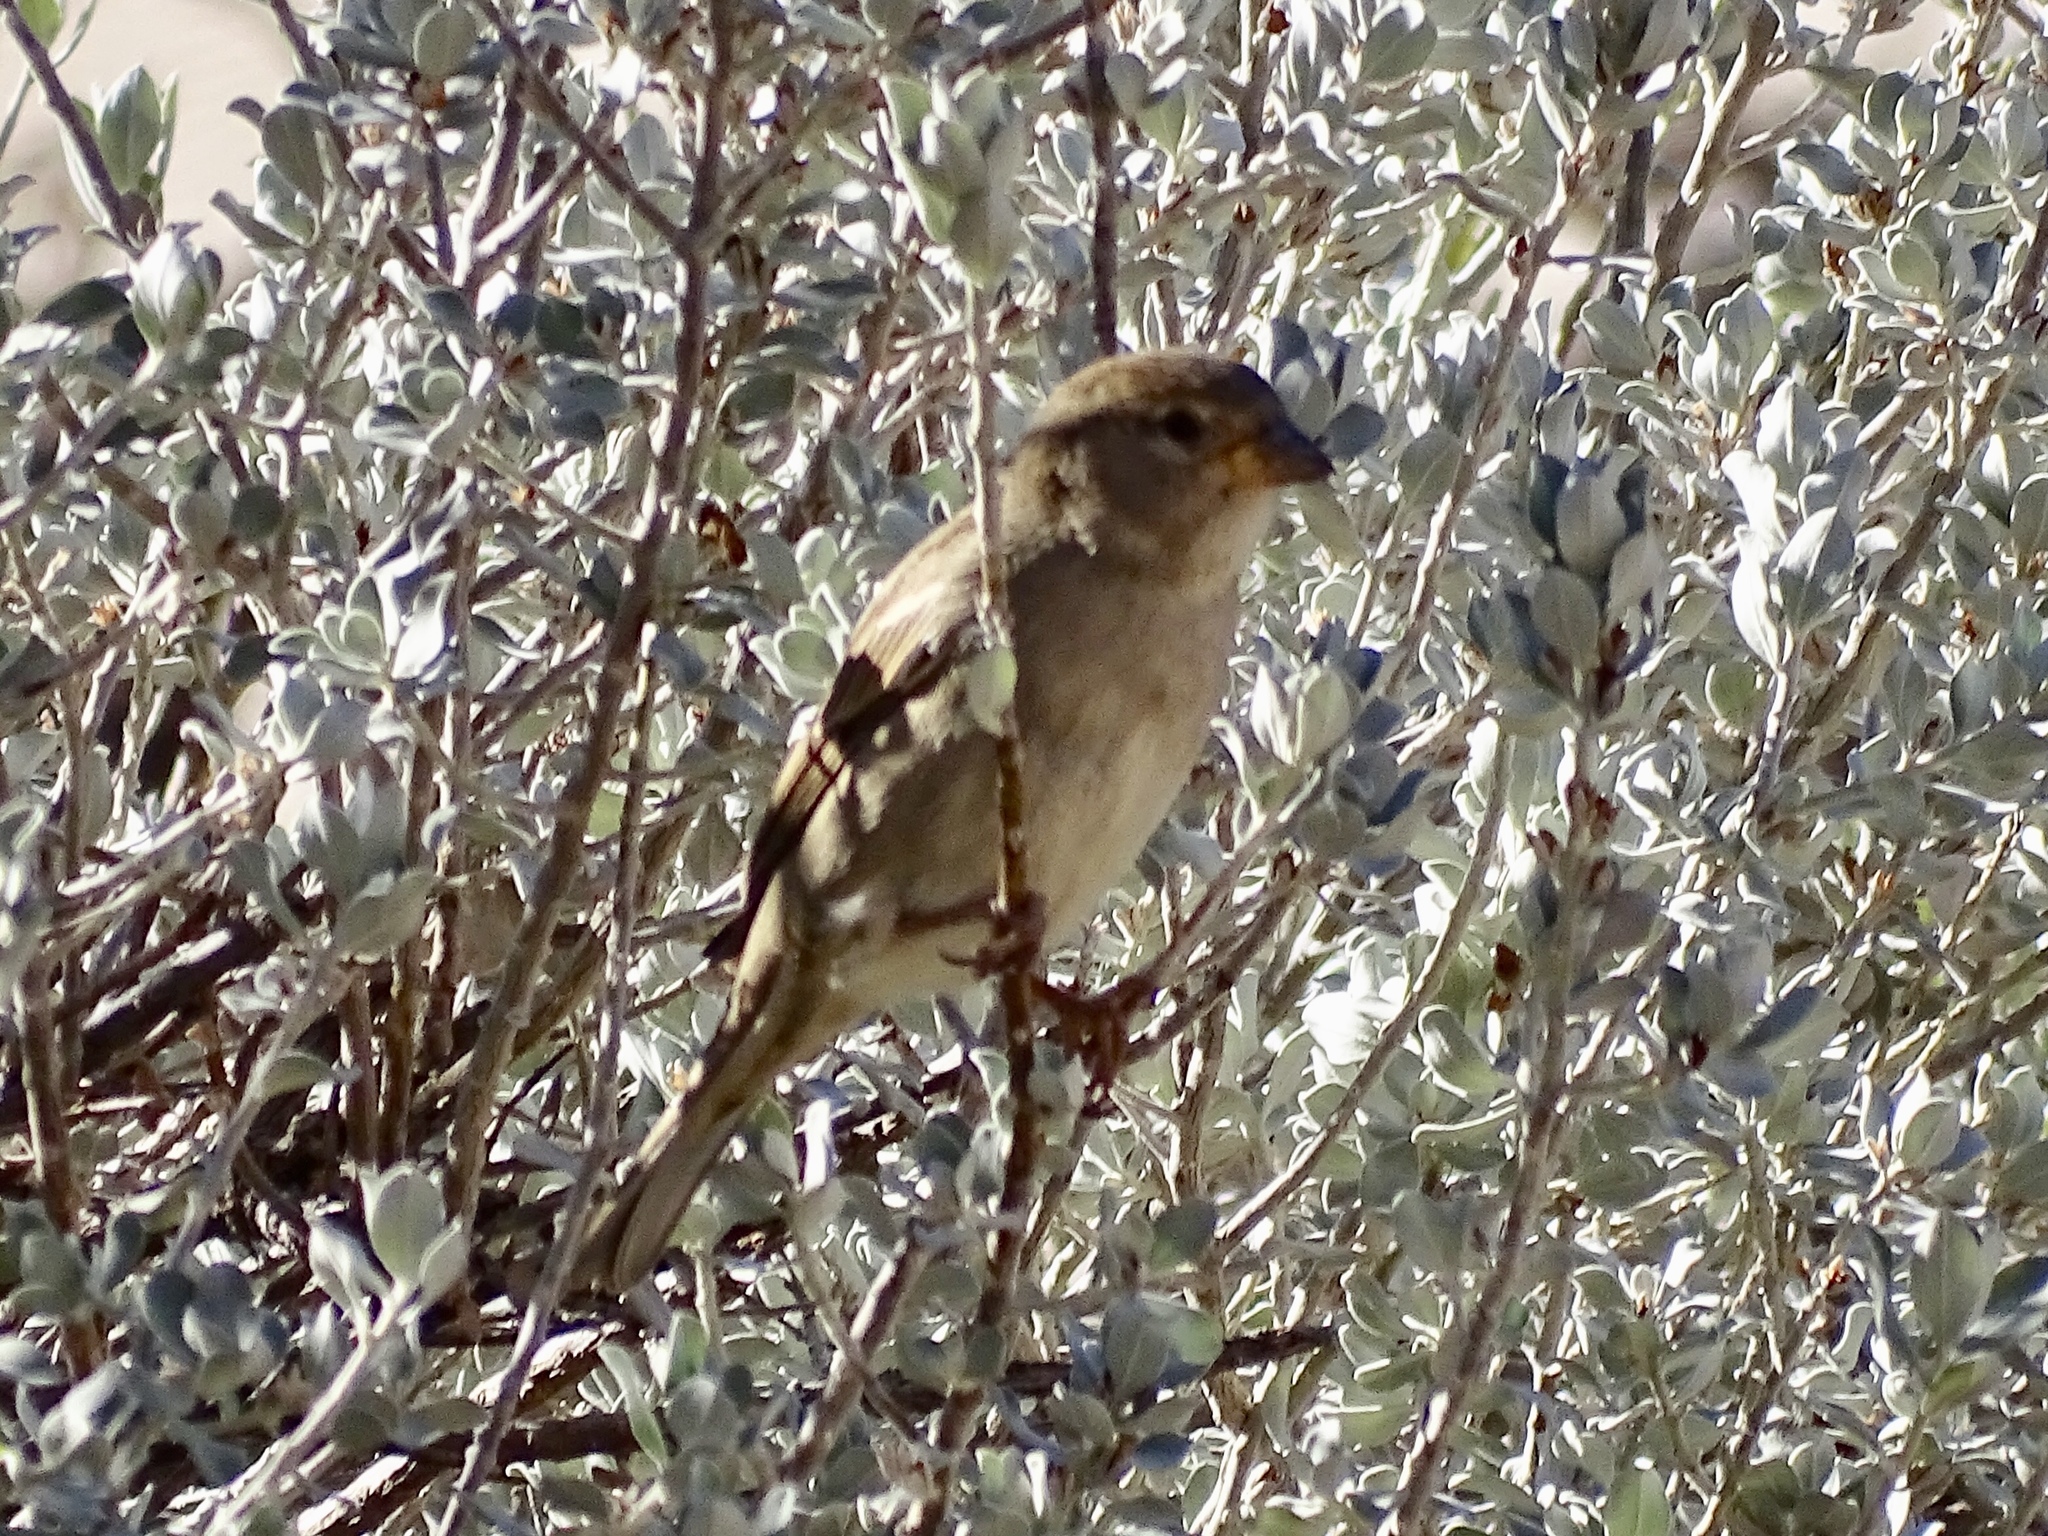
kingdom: Animalia
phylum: Chordata
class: Aves
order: Passeriformes
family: Passeridae
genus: Passer
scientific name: Passer domesticus
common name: House sparrow
